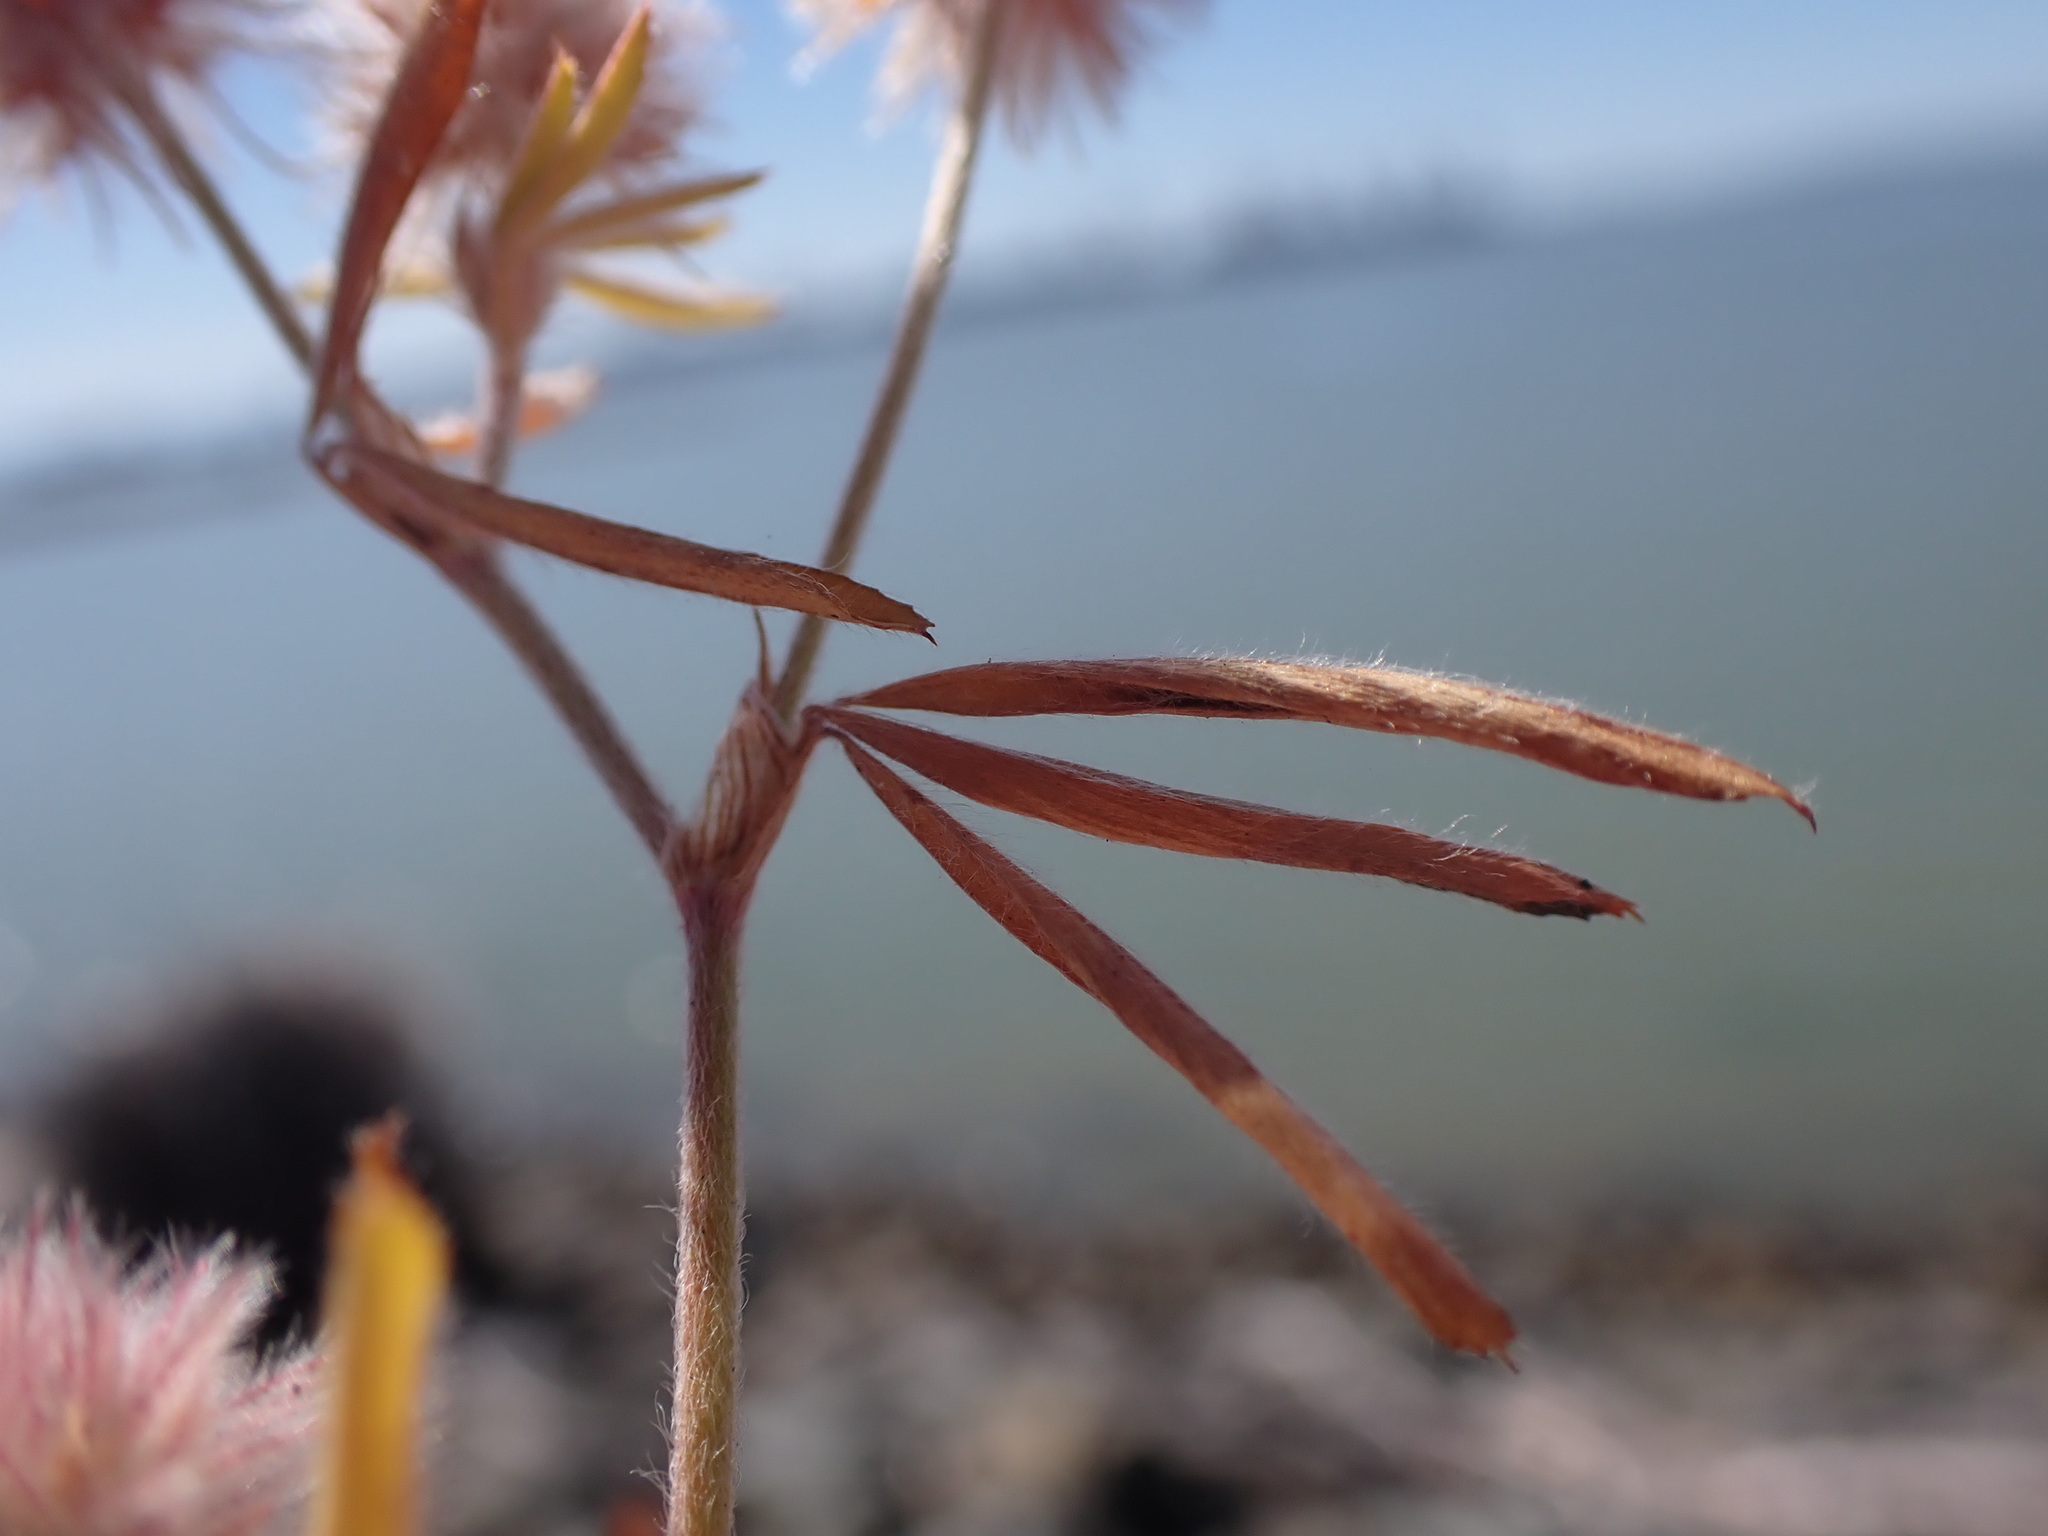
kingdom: Plantae
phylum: Tracheophyta
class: Magnoliopsida
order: Fabales
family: Fabaceae
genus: Trifolium
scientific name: Trifolium arvense
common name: Hare's-foot clover
